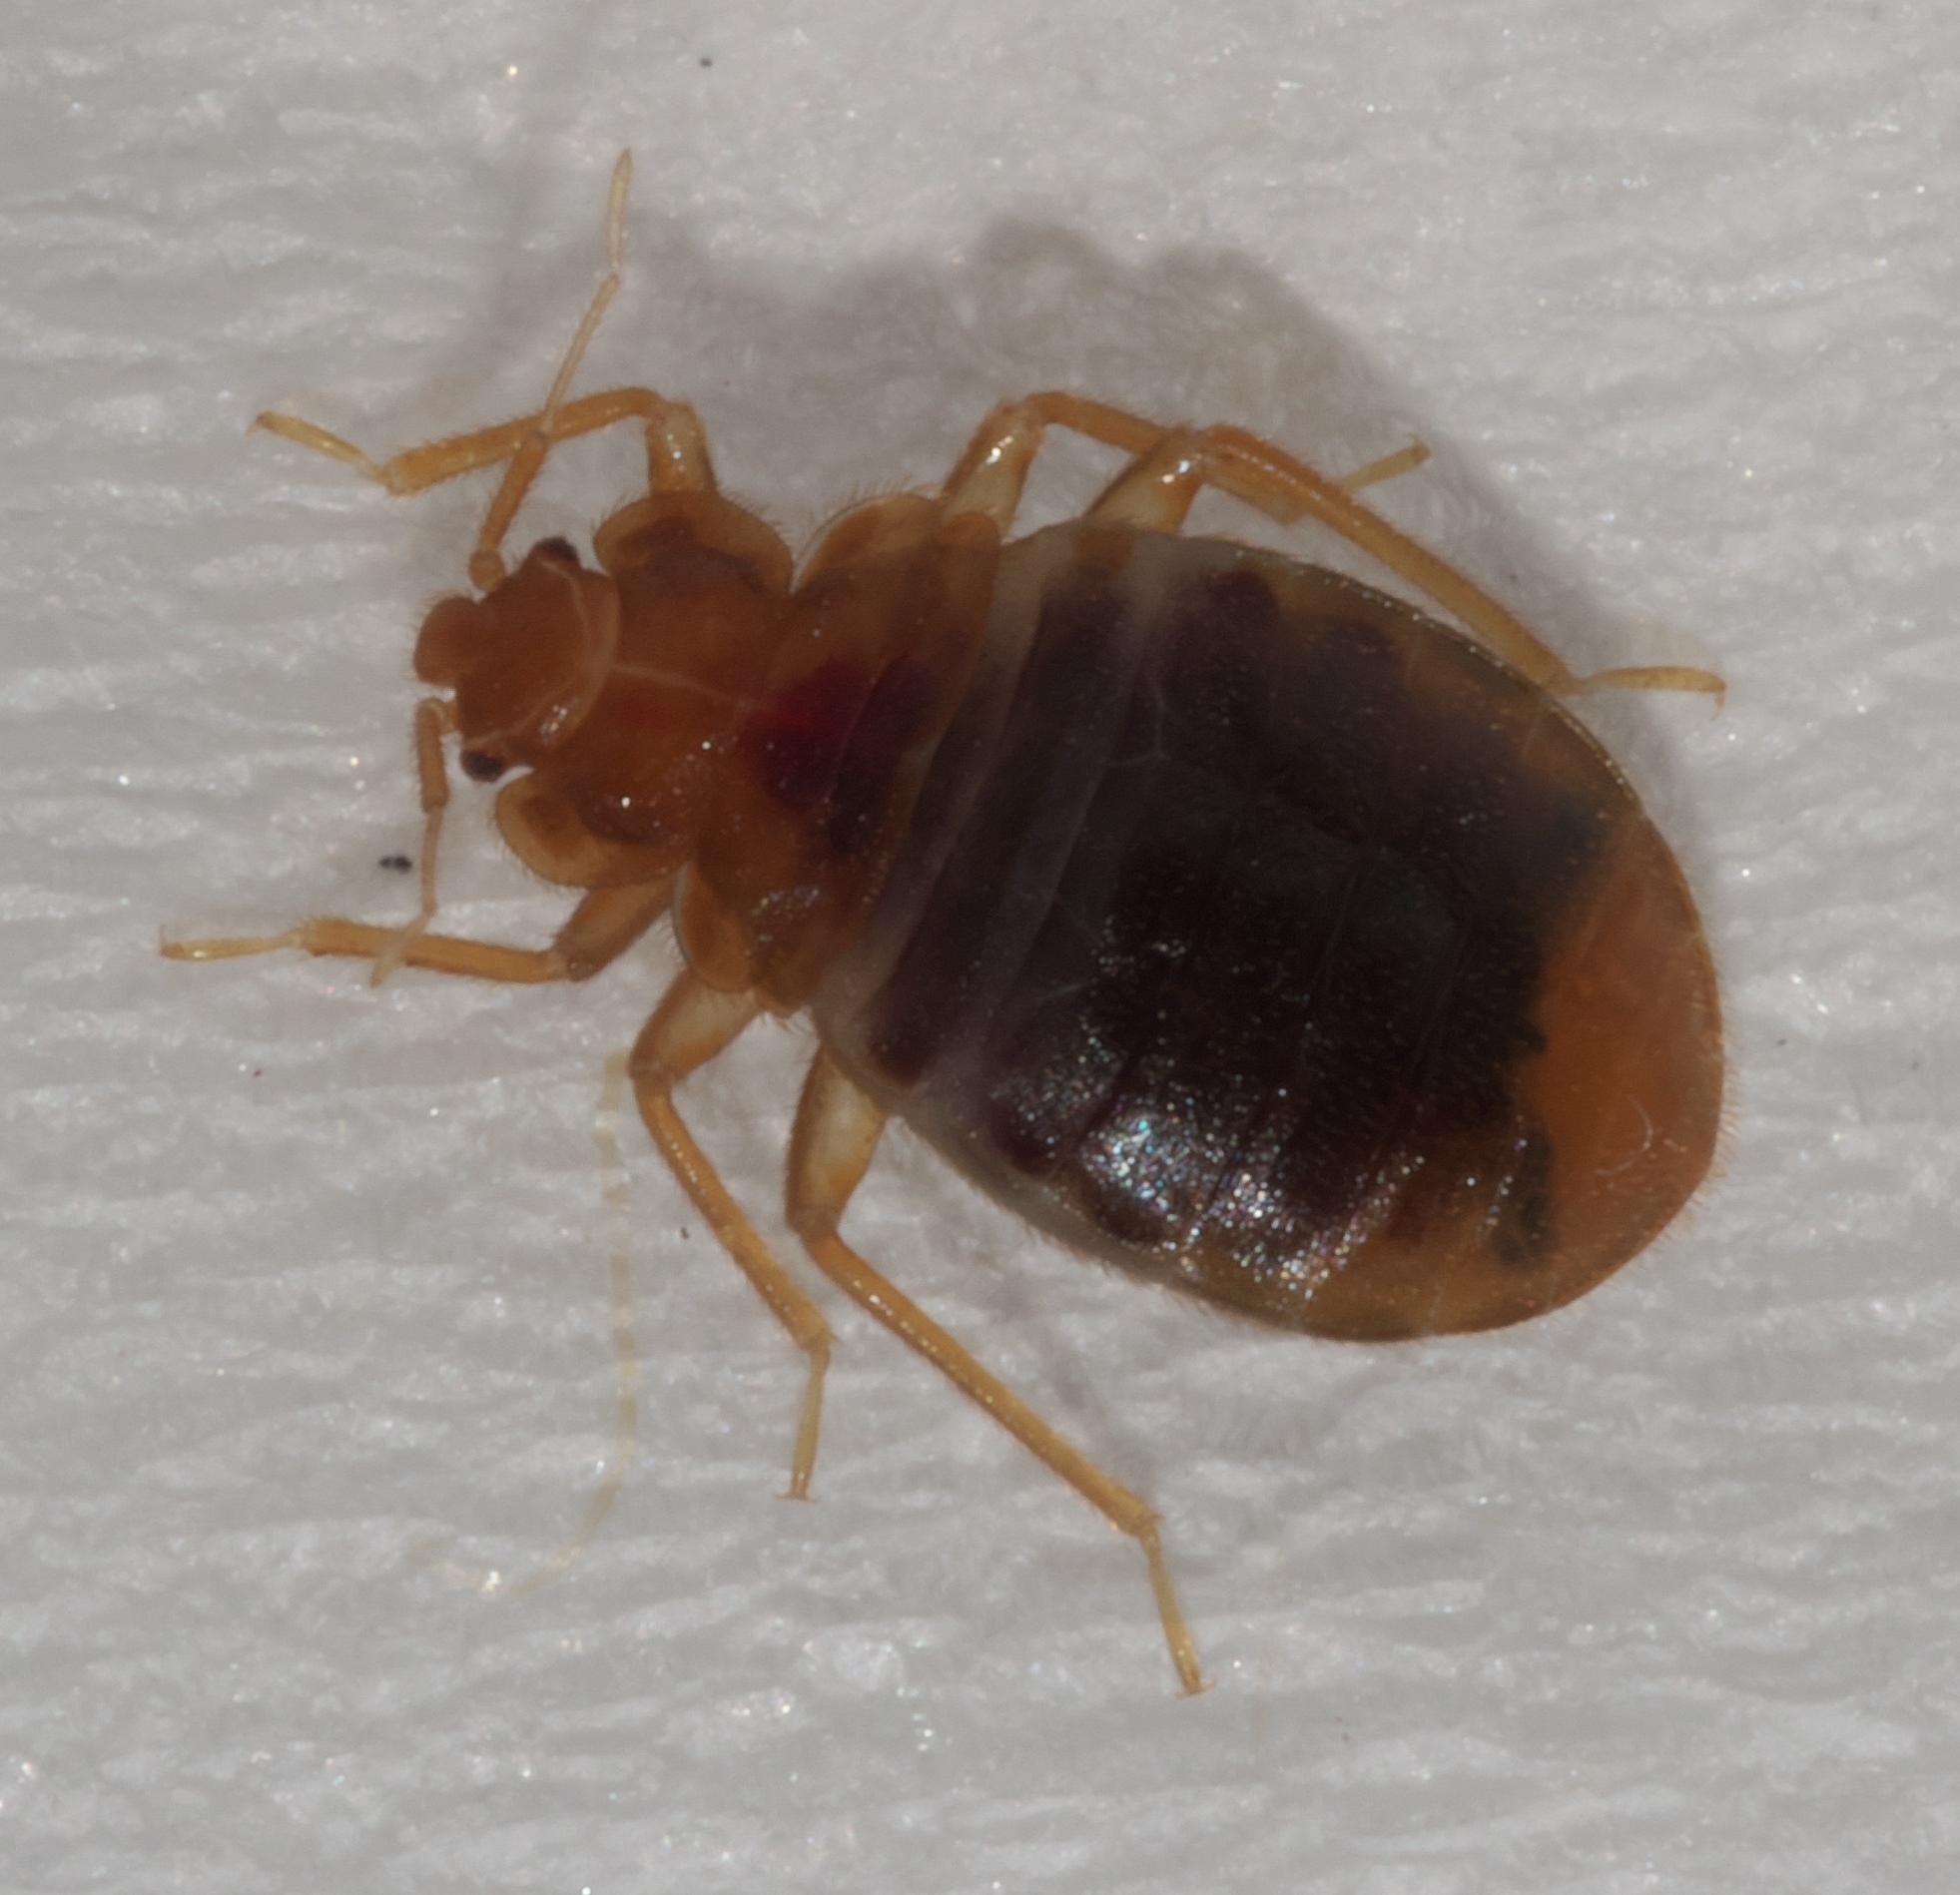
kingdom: Animalia
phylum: Arthropoda
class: Insecta
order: Hemiptera
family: Cimicidae
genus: Cimex
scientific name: Cimex lectularius
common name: Bed bug
